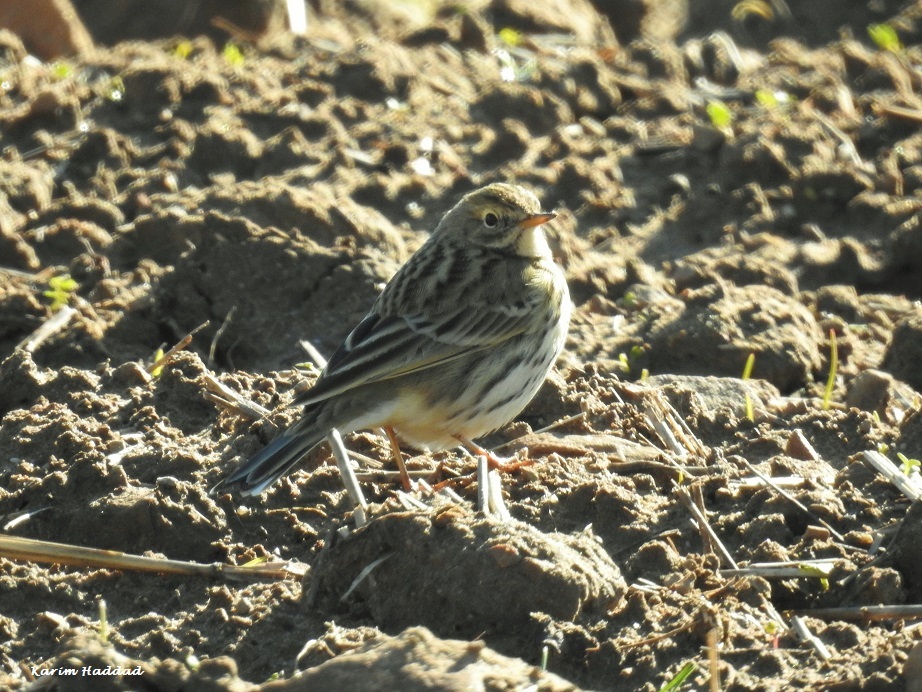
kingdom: Animalia
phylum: Chordata
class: Aves
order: Passeriformes
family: Motacillidae
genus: Anthus
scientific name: Anthus pratensis
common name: Meadow pipit
